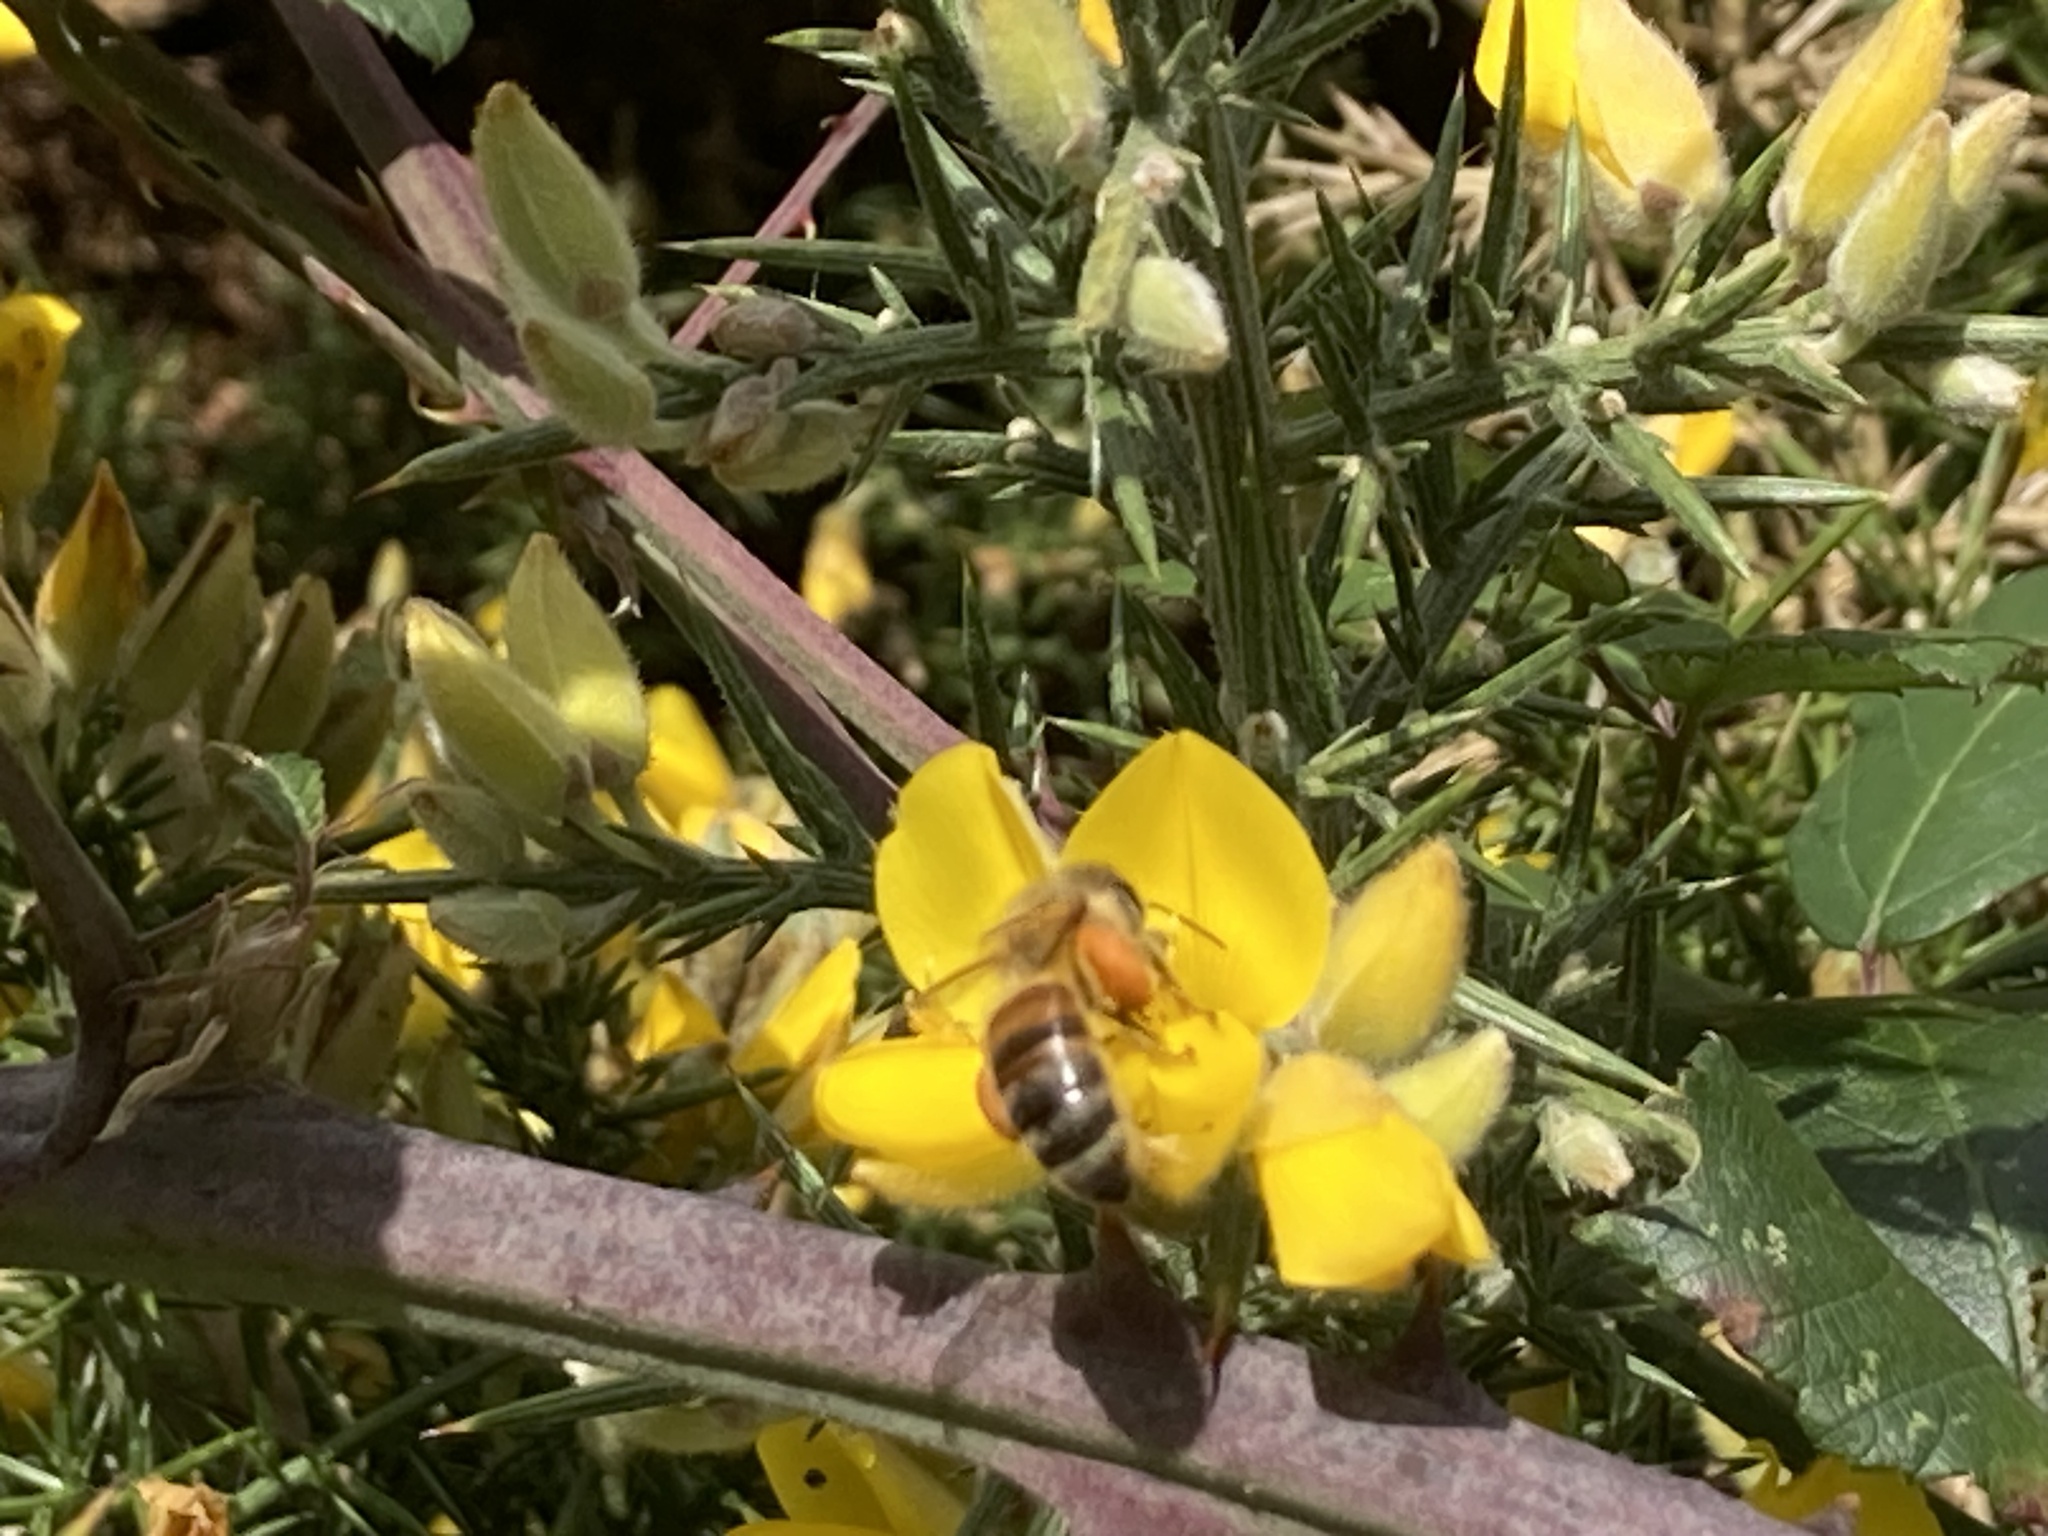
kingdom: Animalia
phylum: Arthropoda
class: Insecta
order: Hymenoptera
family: Apidae
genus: Apis
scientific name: Apis mellifera
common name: Honey bee
